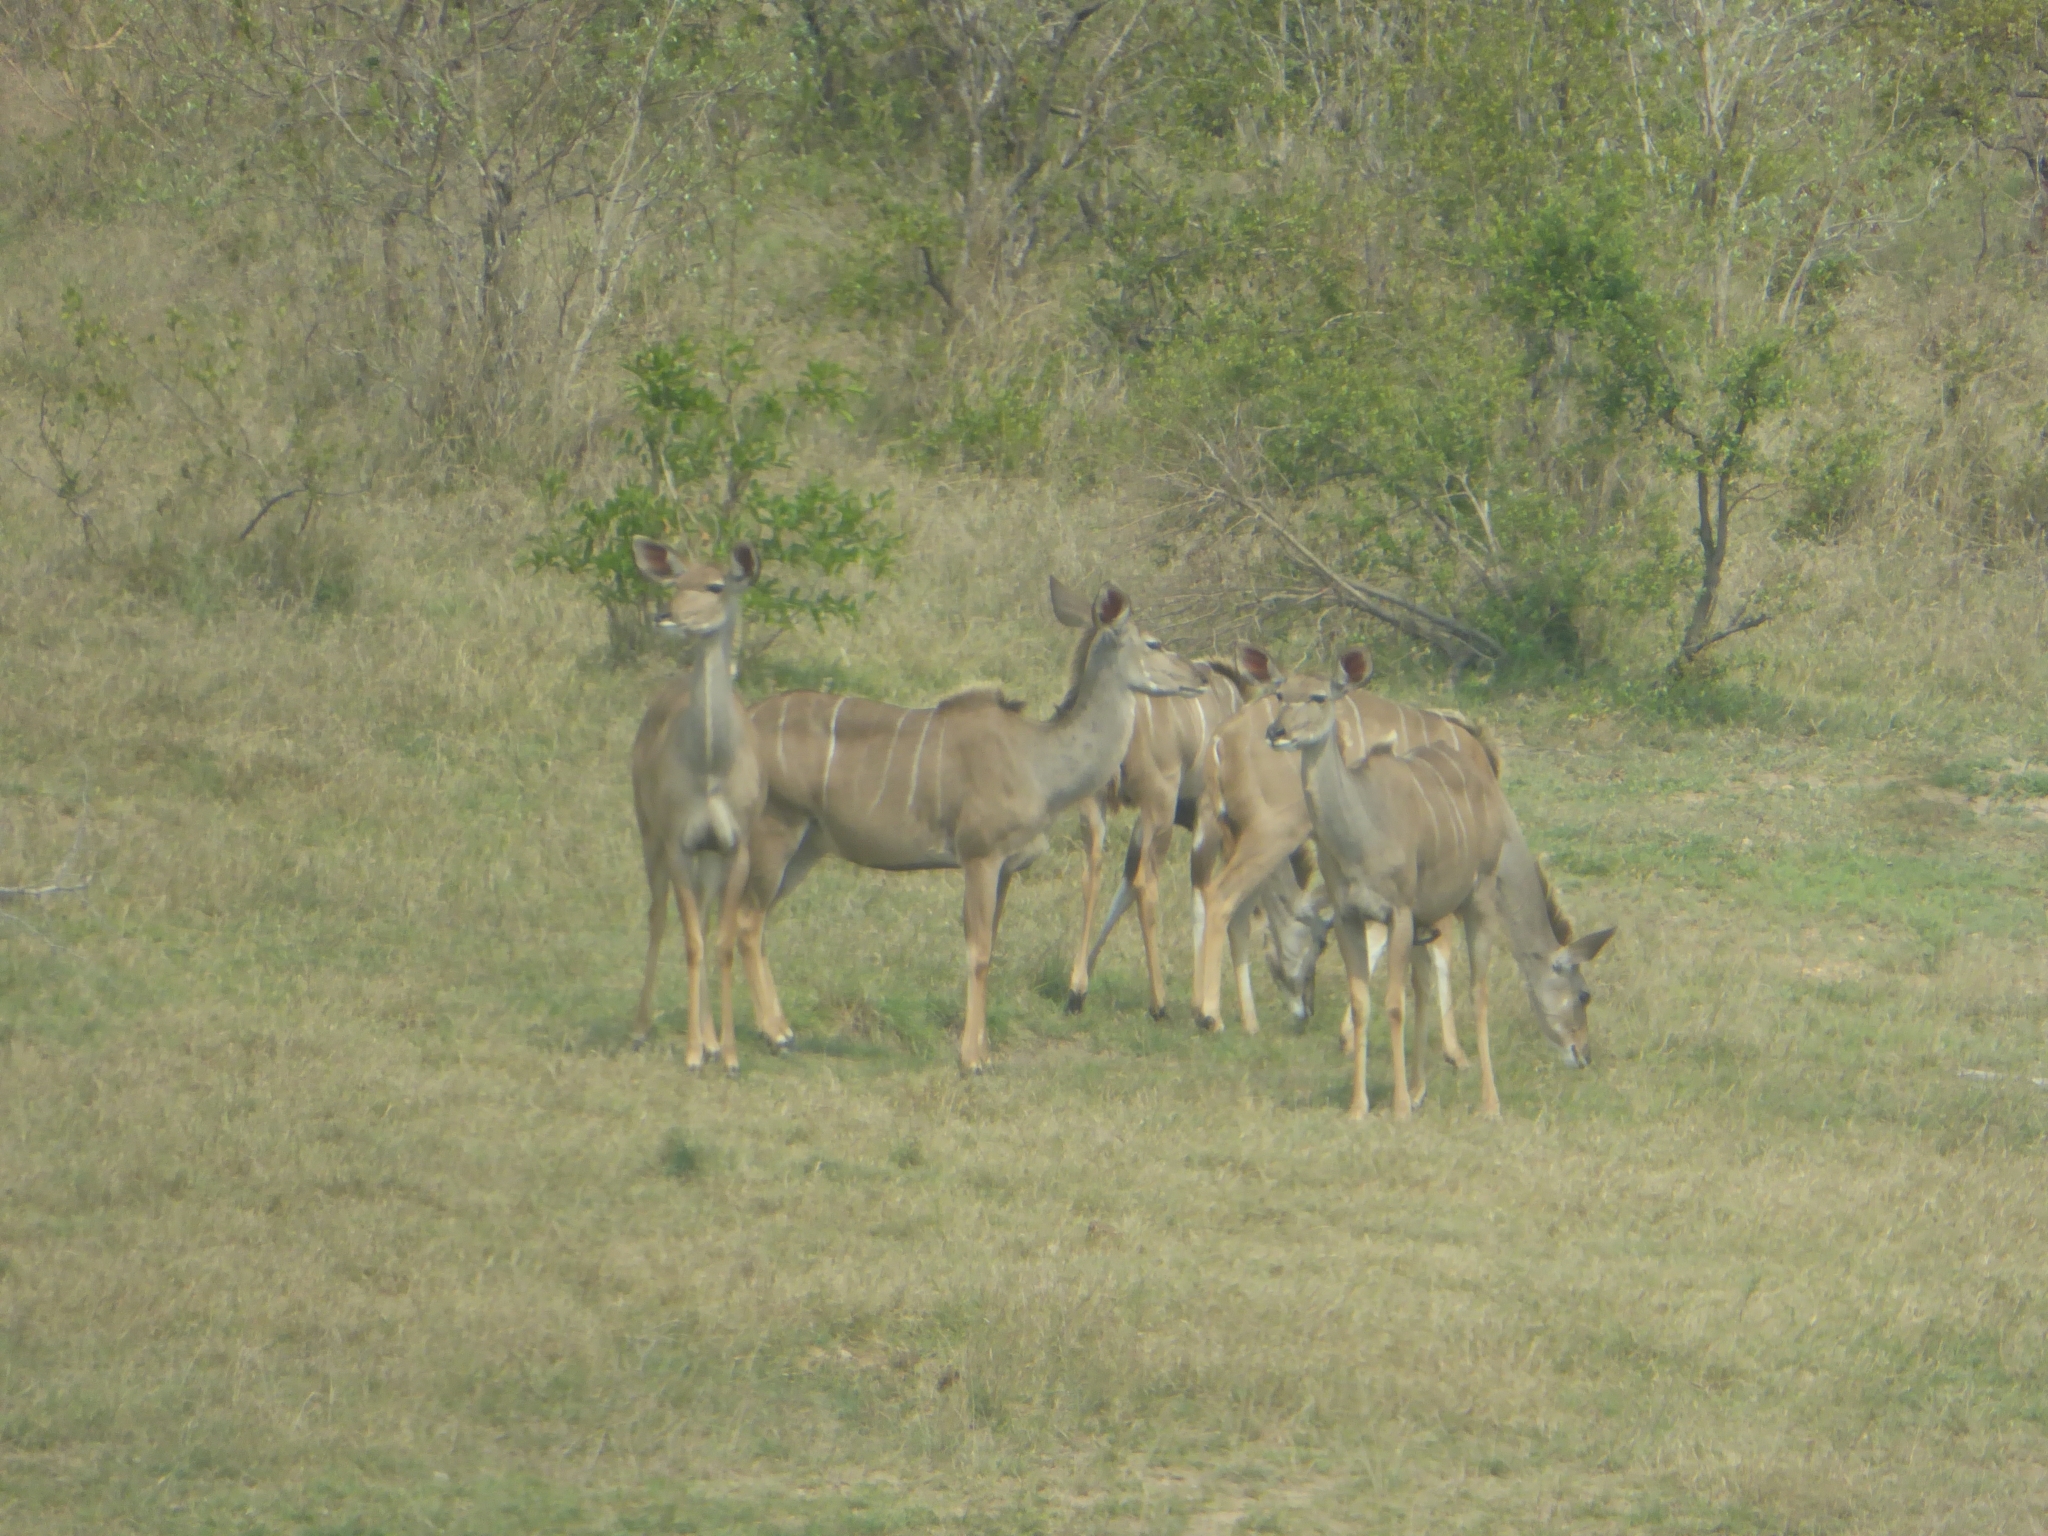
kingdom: Animalia
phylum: Chordata
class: Mammalia
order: Artiodactyla
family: Bovidae
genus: Tragelaphus
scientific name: Tragelaphus strepsiceros
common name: Greater kudu
